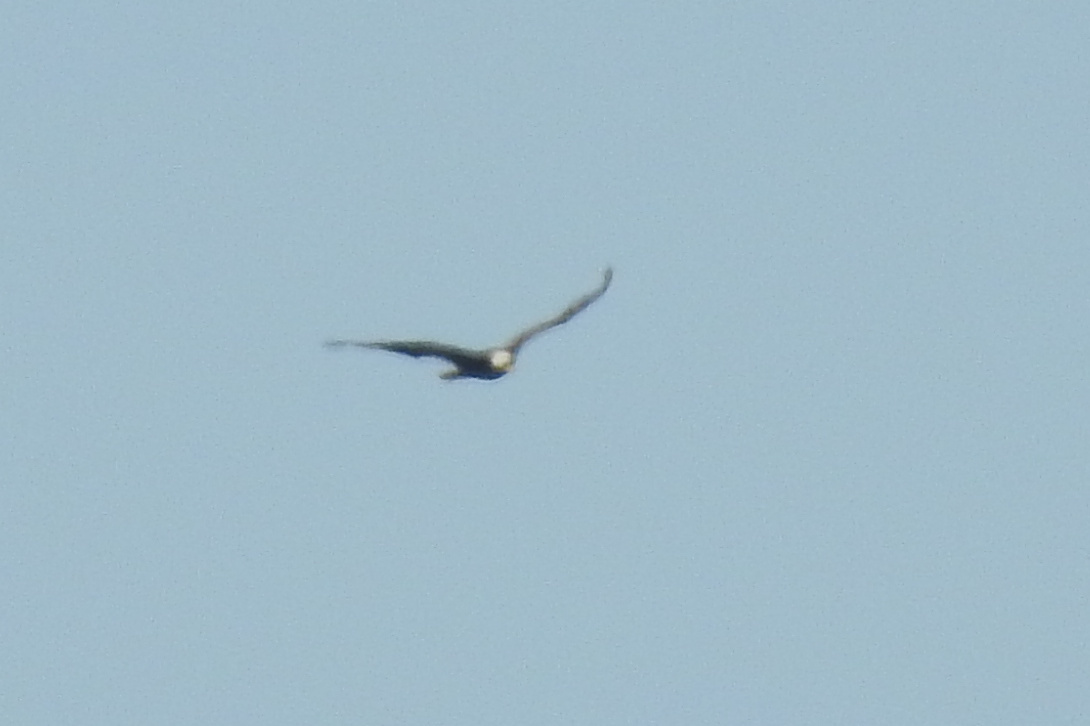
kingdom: Animalia
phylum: Chordata
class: Aves
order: Accipitriformes
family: Accipitridae
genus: Haliaeetus
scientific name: Haliaeetus leucocephalus
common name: Bald eagle
